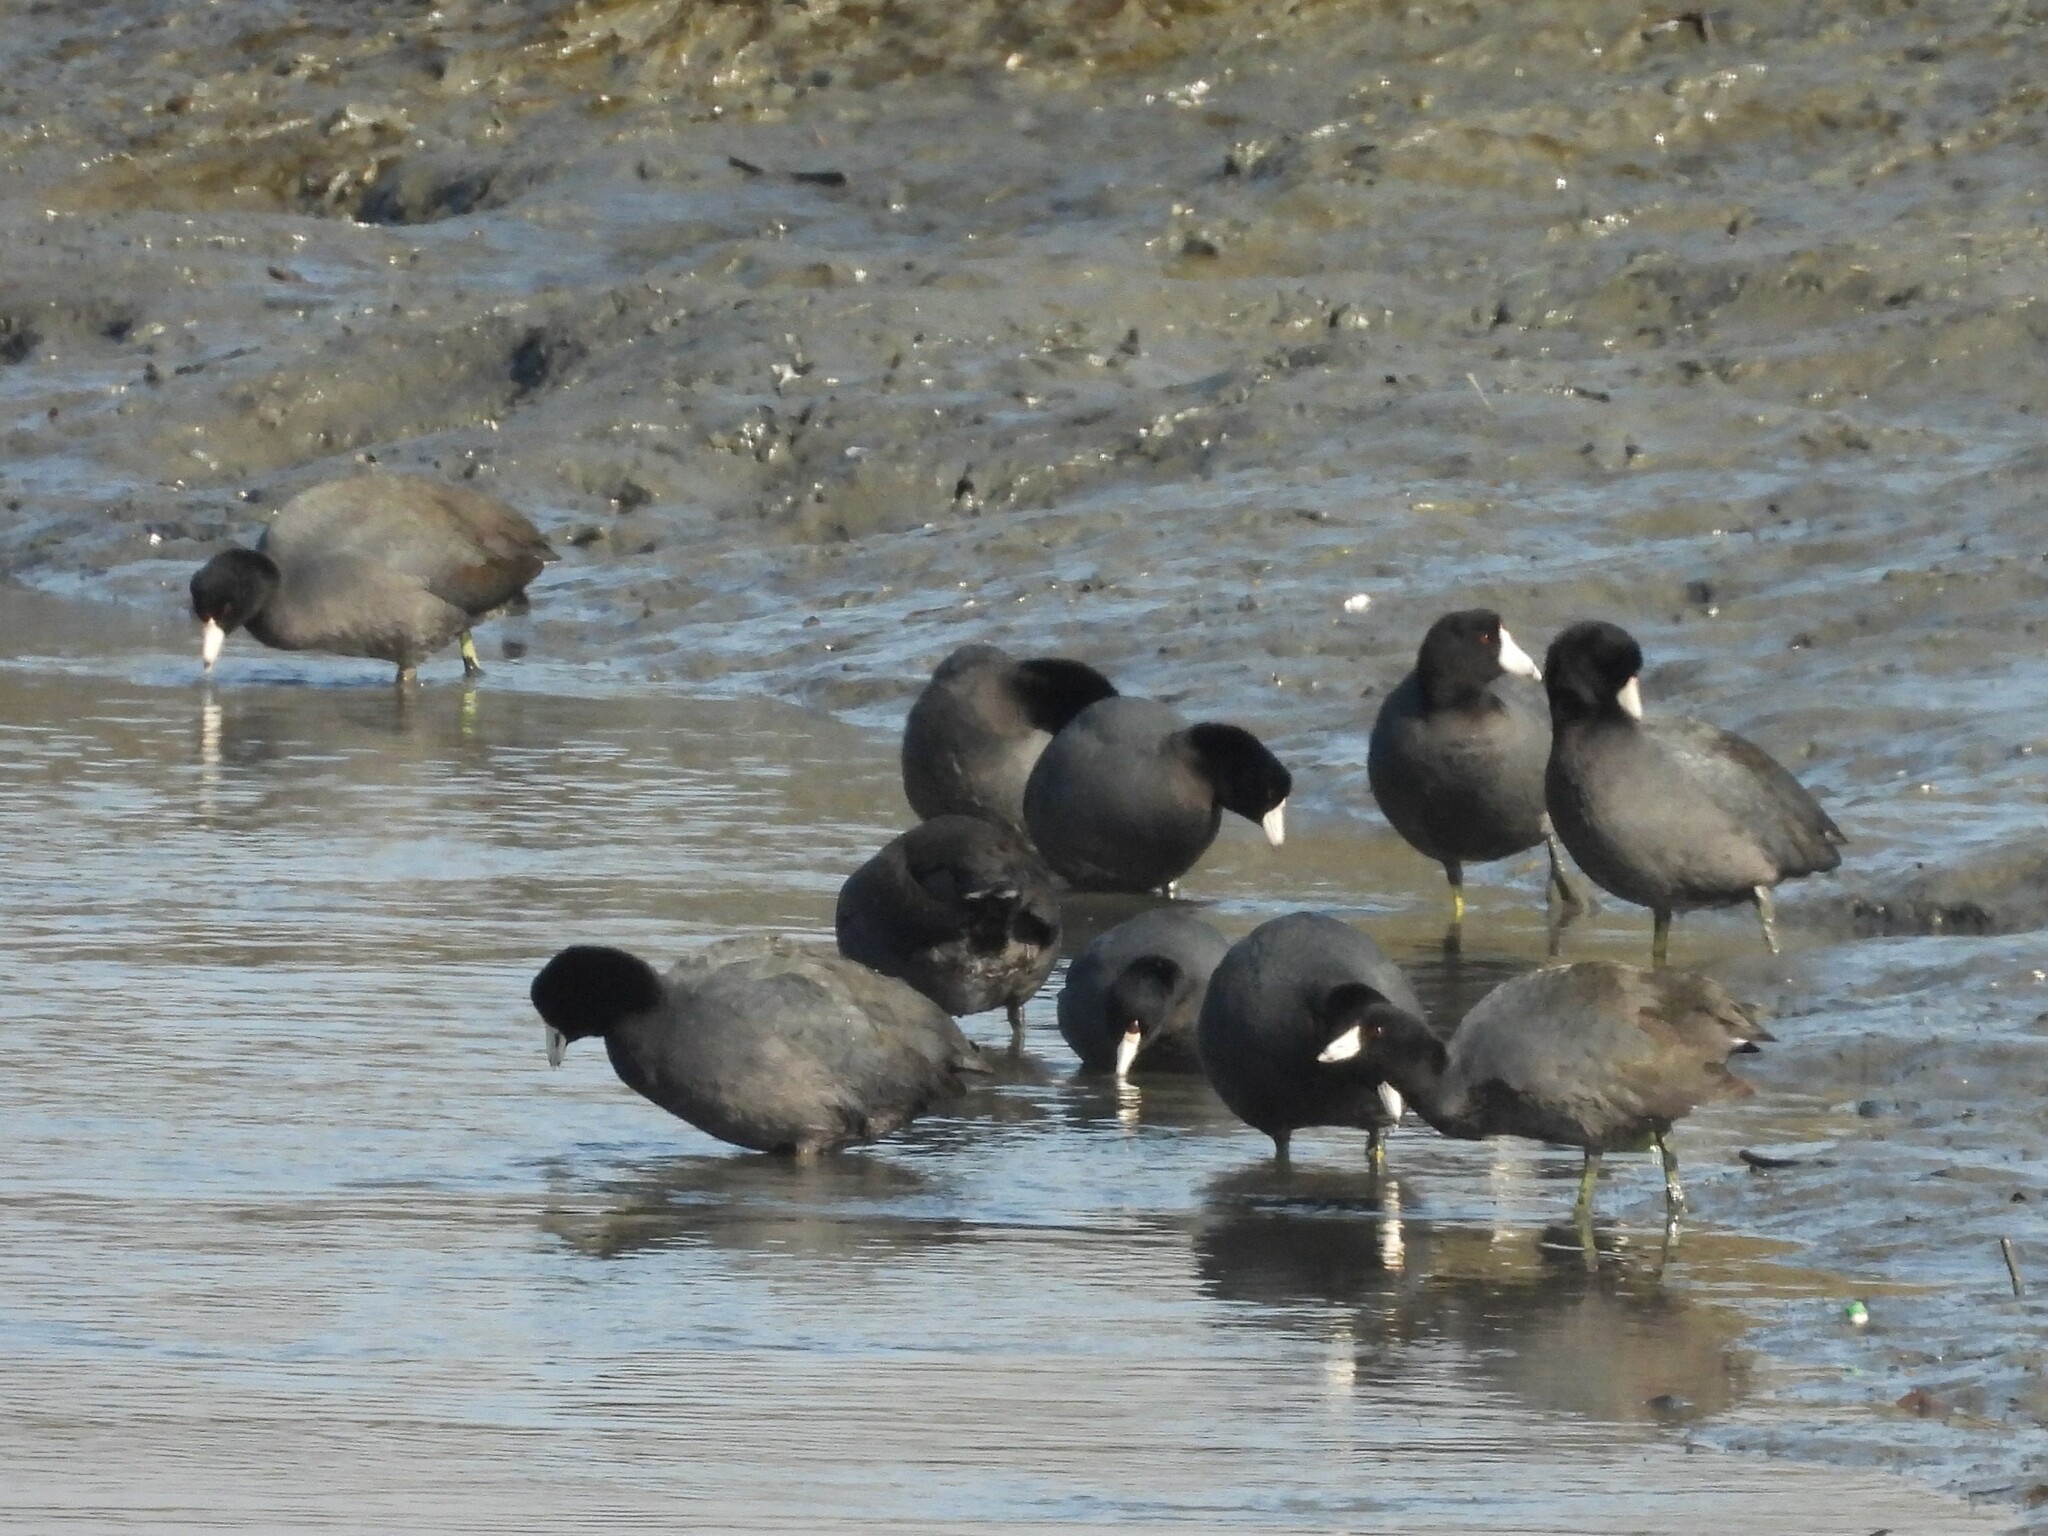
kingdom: Animalia
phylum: Chordata
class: Aves
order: Gruiformes
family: Rallidae
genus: Fulica
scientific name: Fulica americana
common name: American coot
